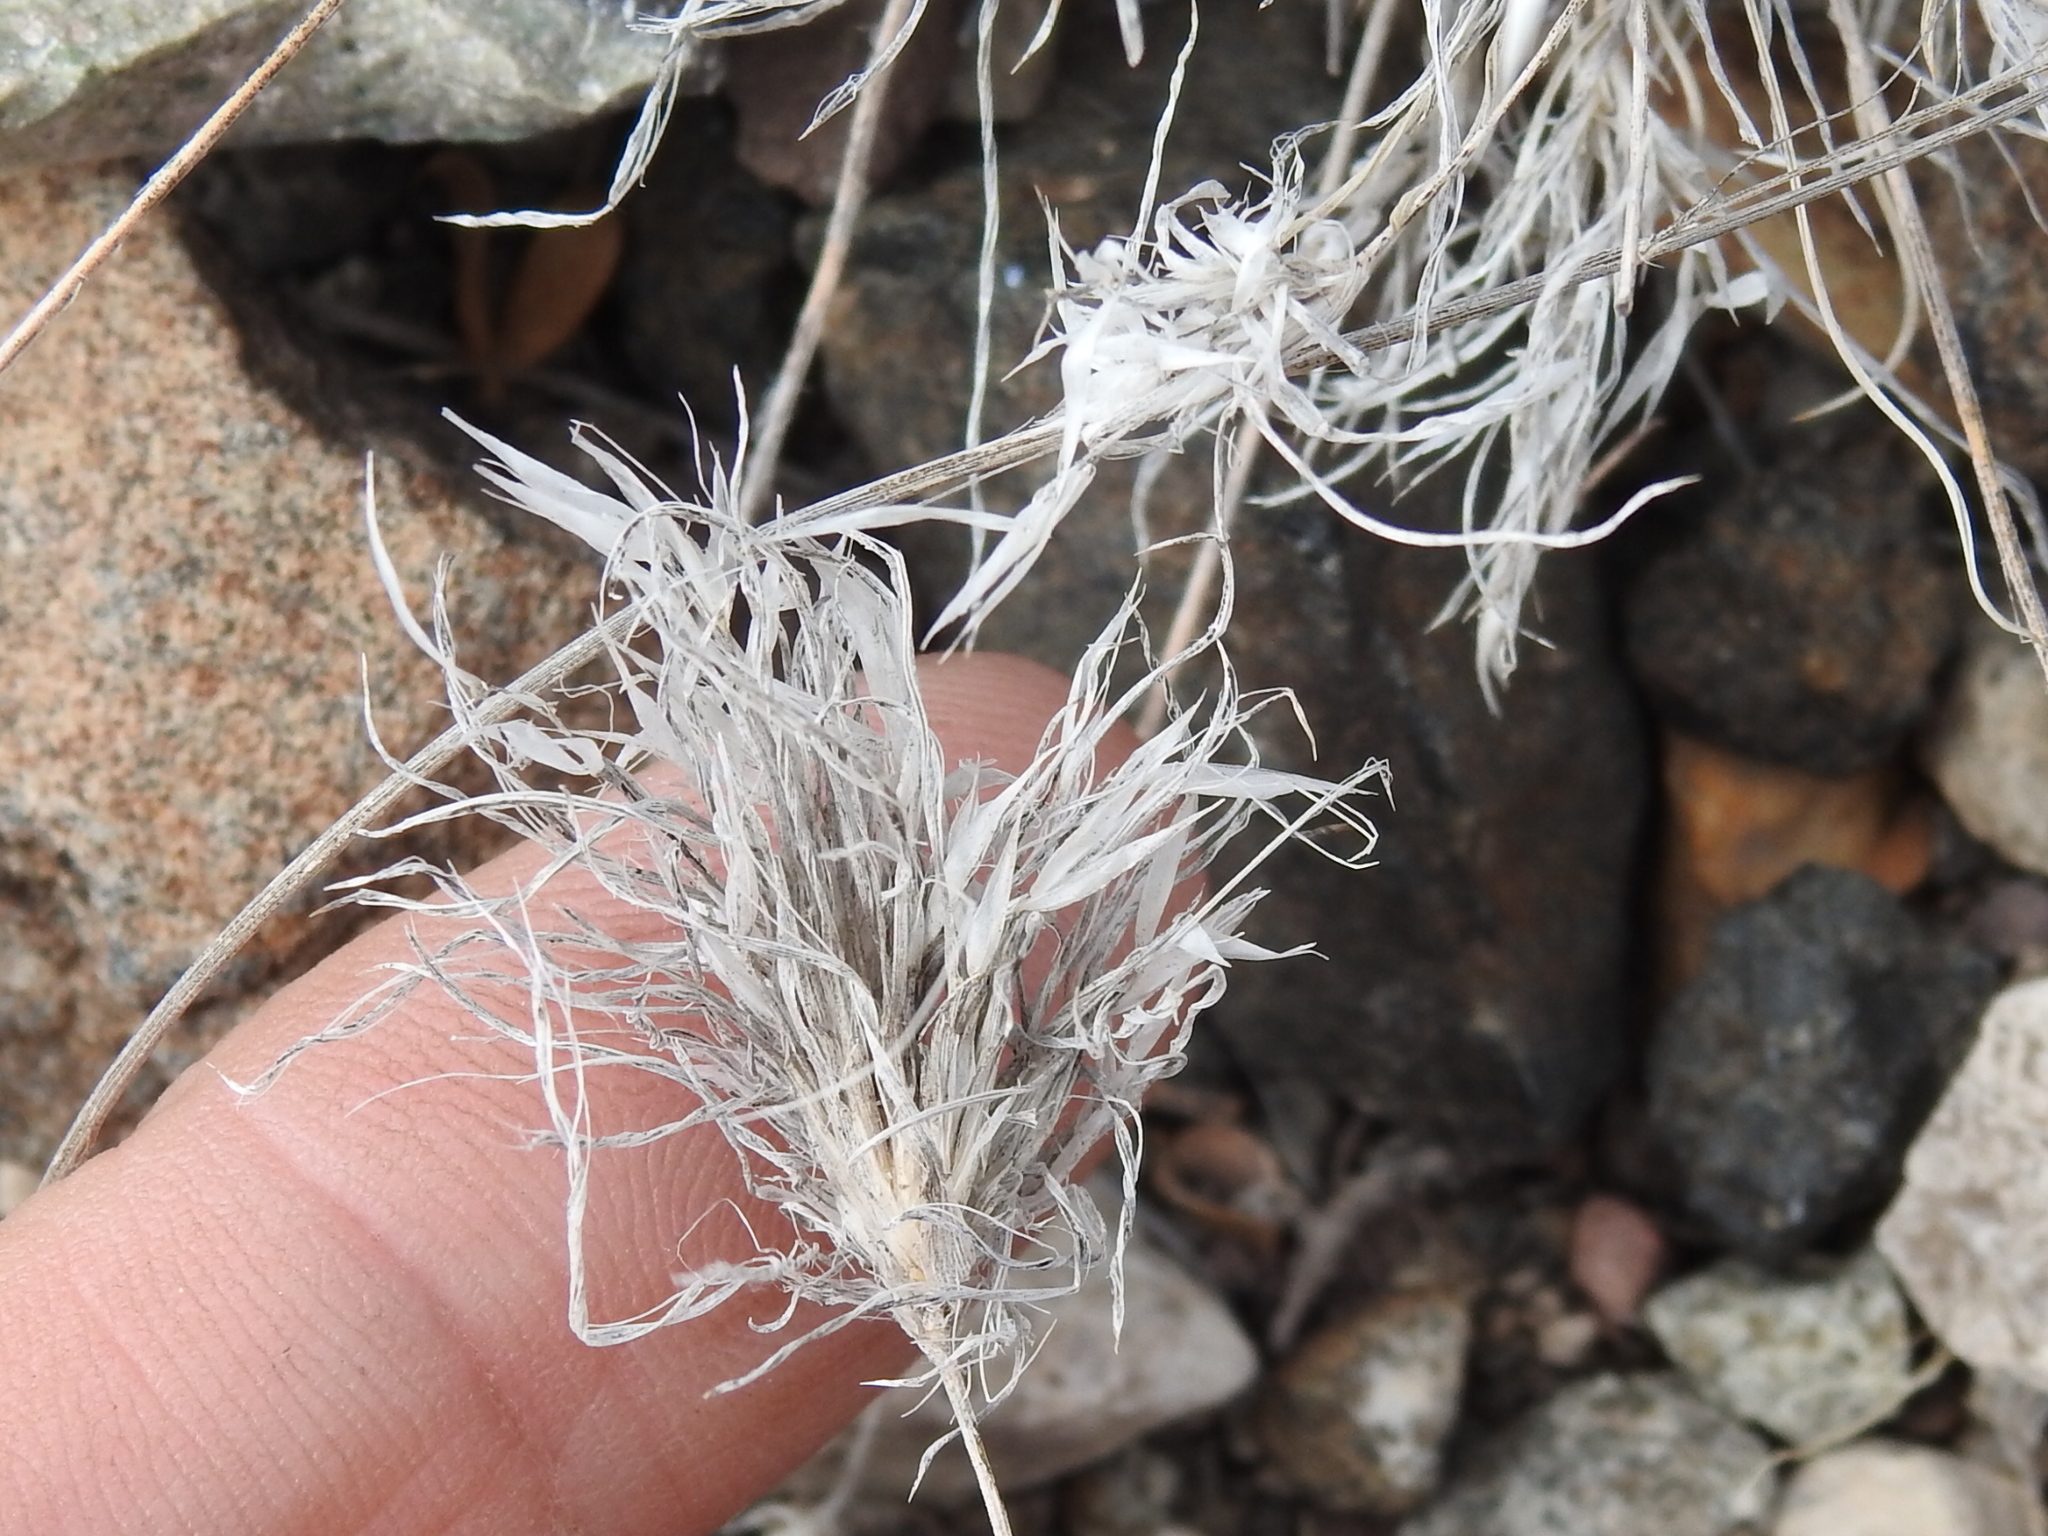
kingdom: Plantae
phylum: Tracheophyta
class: Liliopsida
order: Poales
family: Poaceae
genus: Dasyochloa
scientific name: Dasyochloa pulchella
